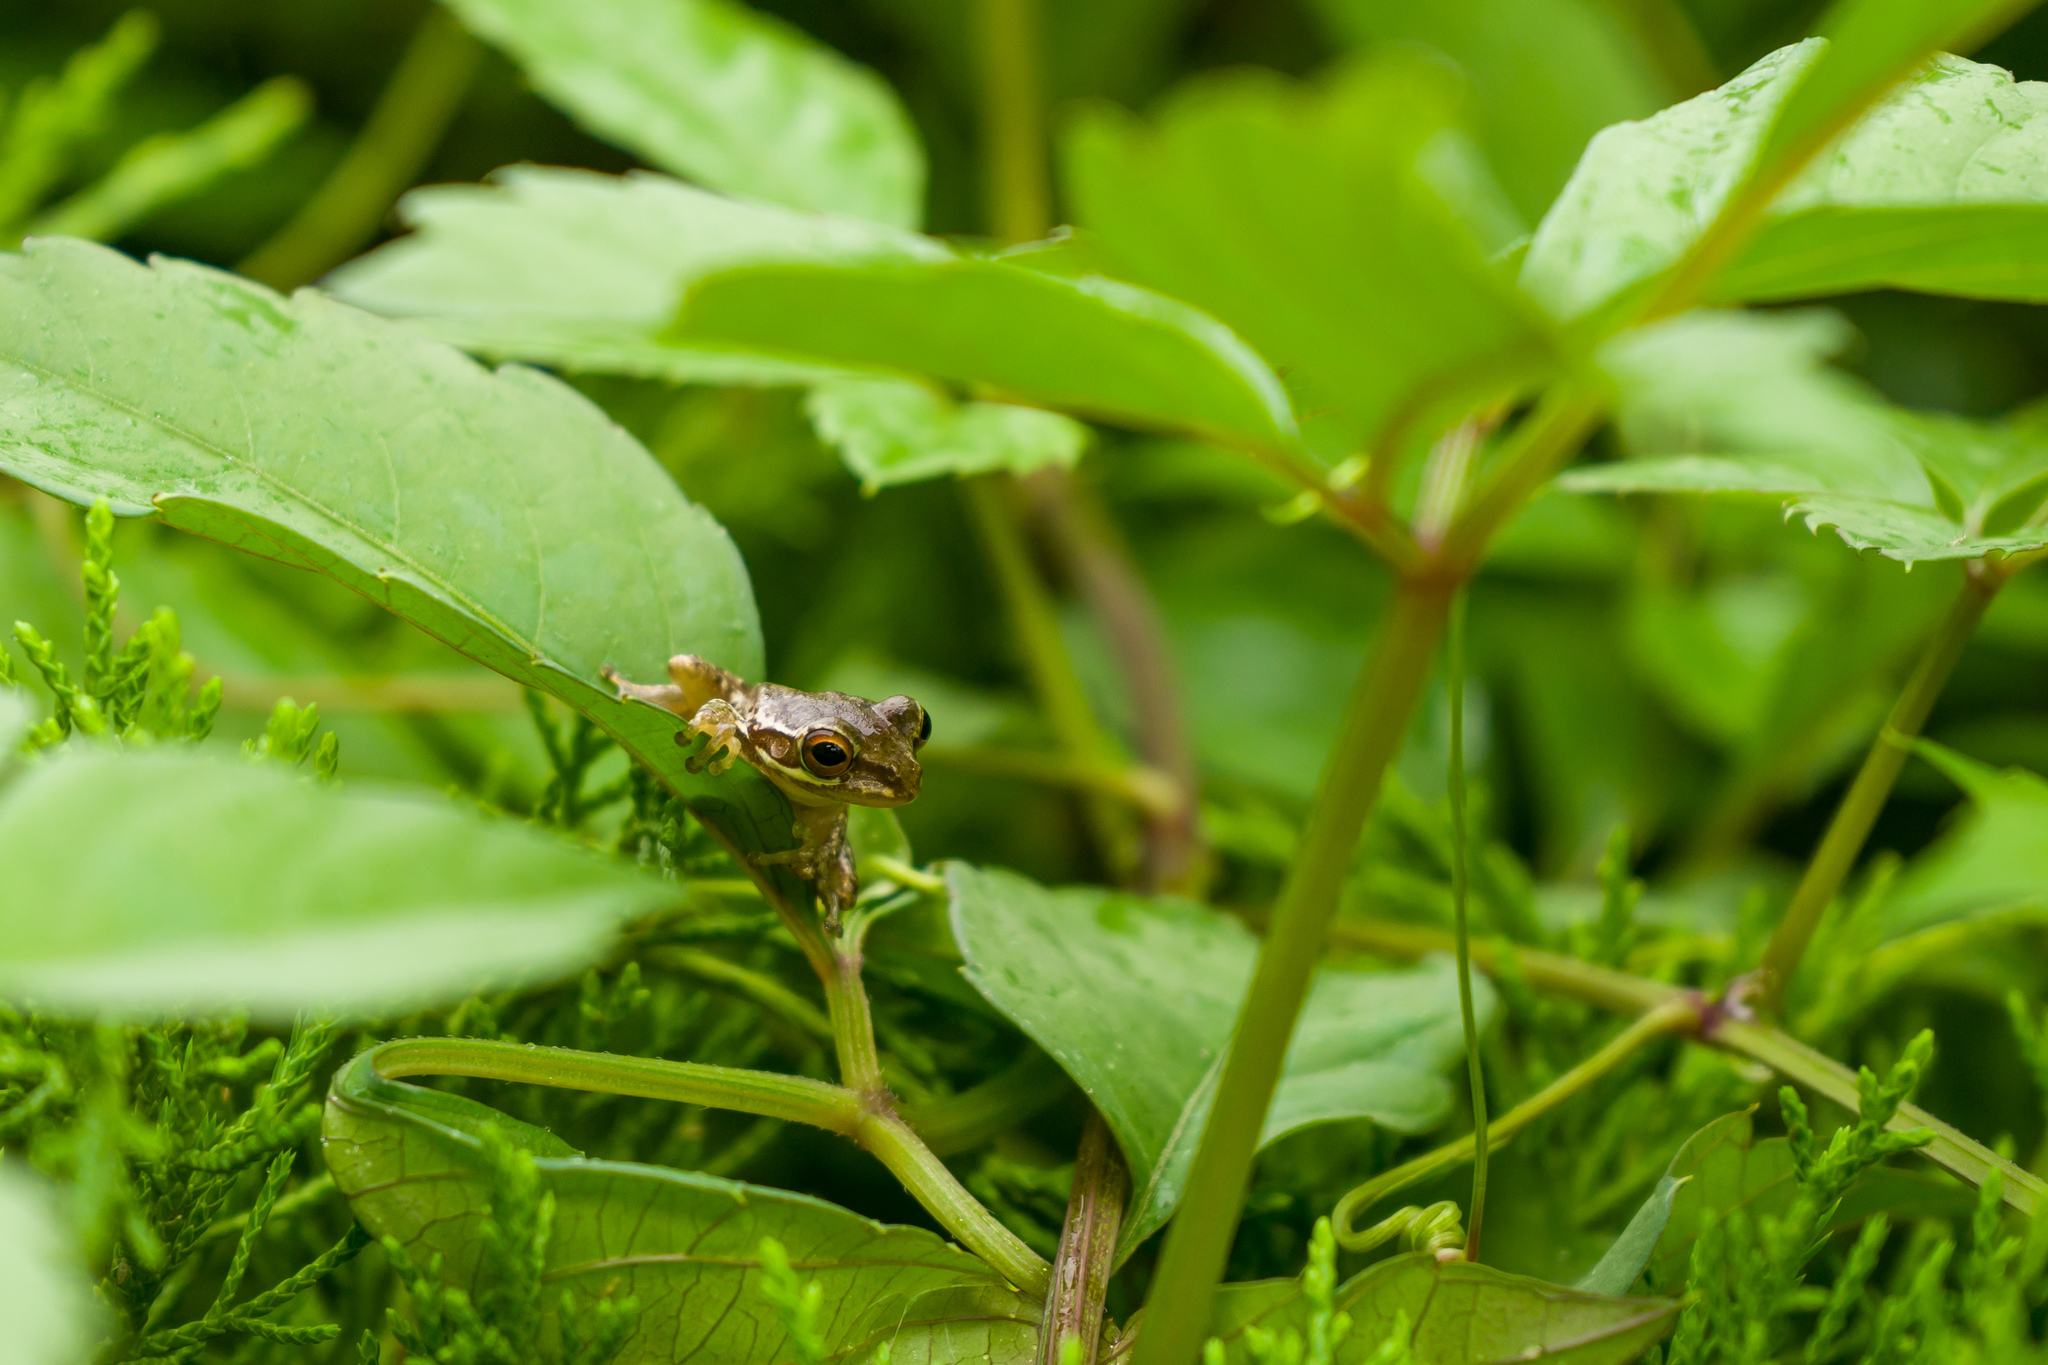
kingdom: Animalia
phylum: Chordata
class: Amphibia
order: Anura
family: Hylidae
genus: Osteopilus
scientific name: Osteopilus septentrionalis
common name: Cuban treefrog
